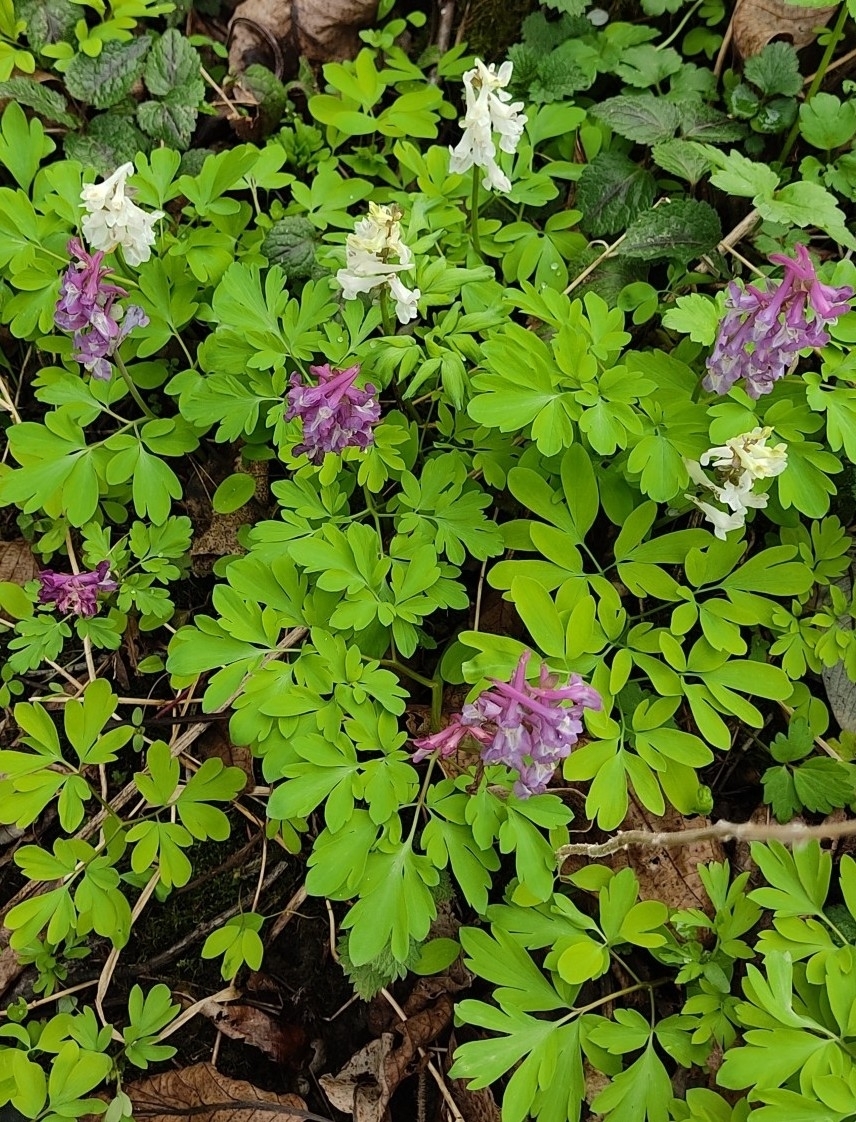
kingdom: Plantae
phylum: Tracheophyta
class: Magnoliopsida
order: Ranunculales
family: Papaveraceae
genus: Corydalis
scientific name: Corydalis cava
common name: Hollowroot
